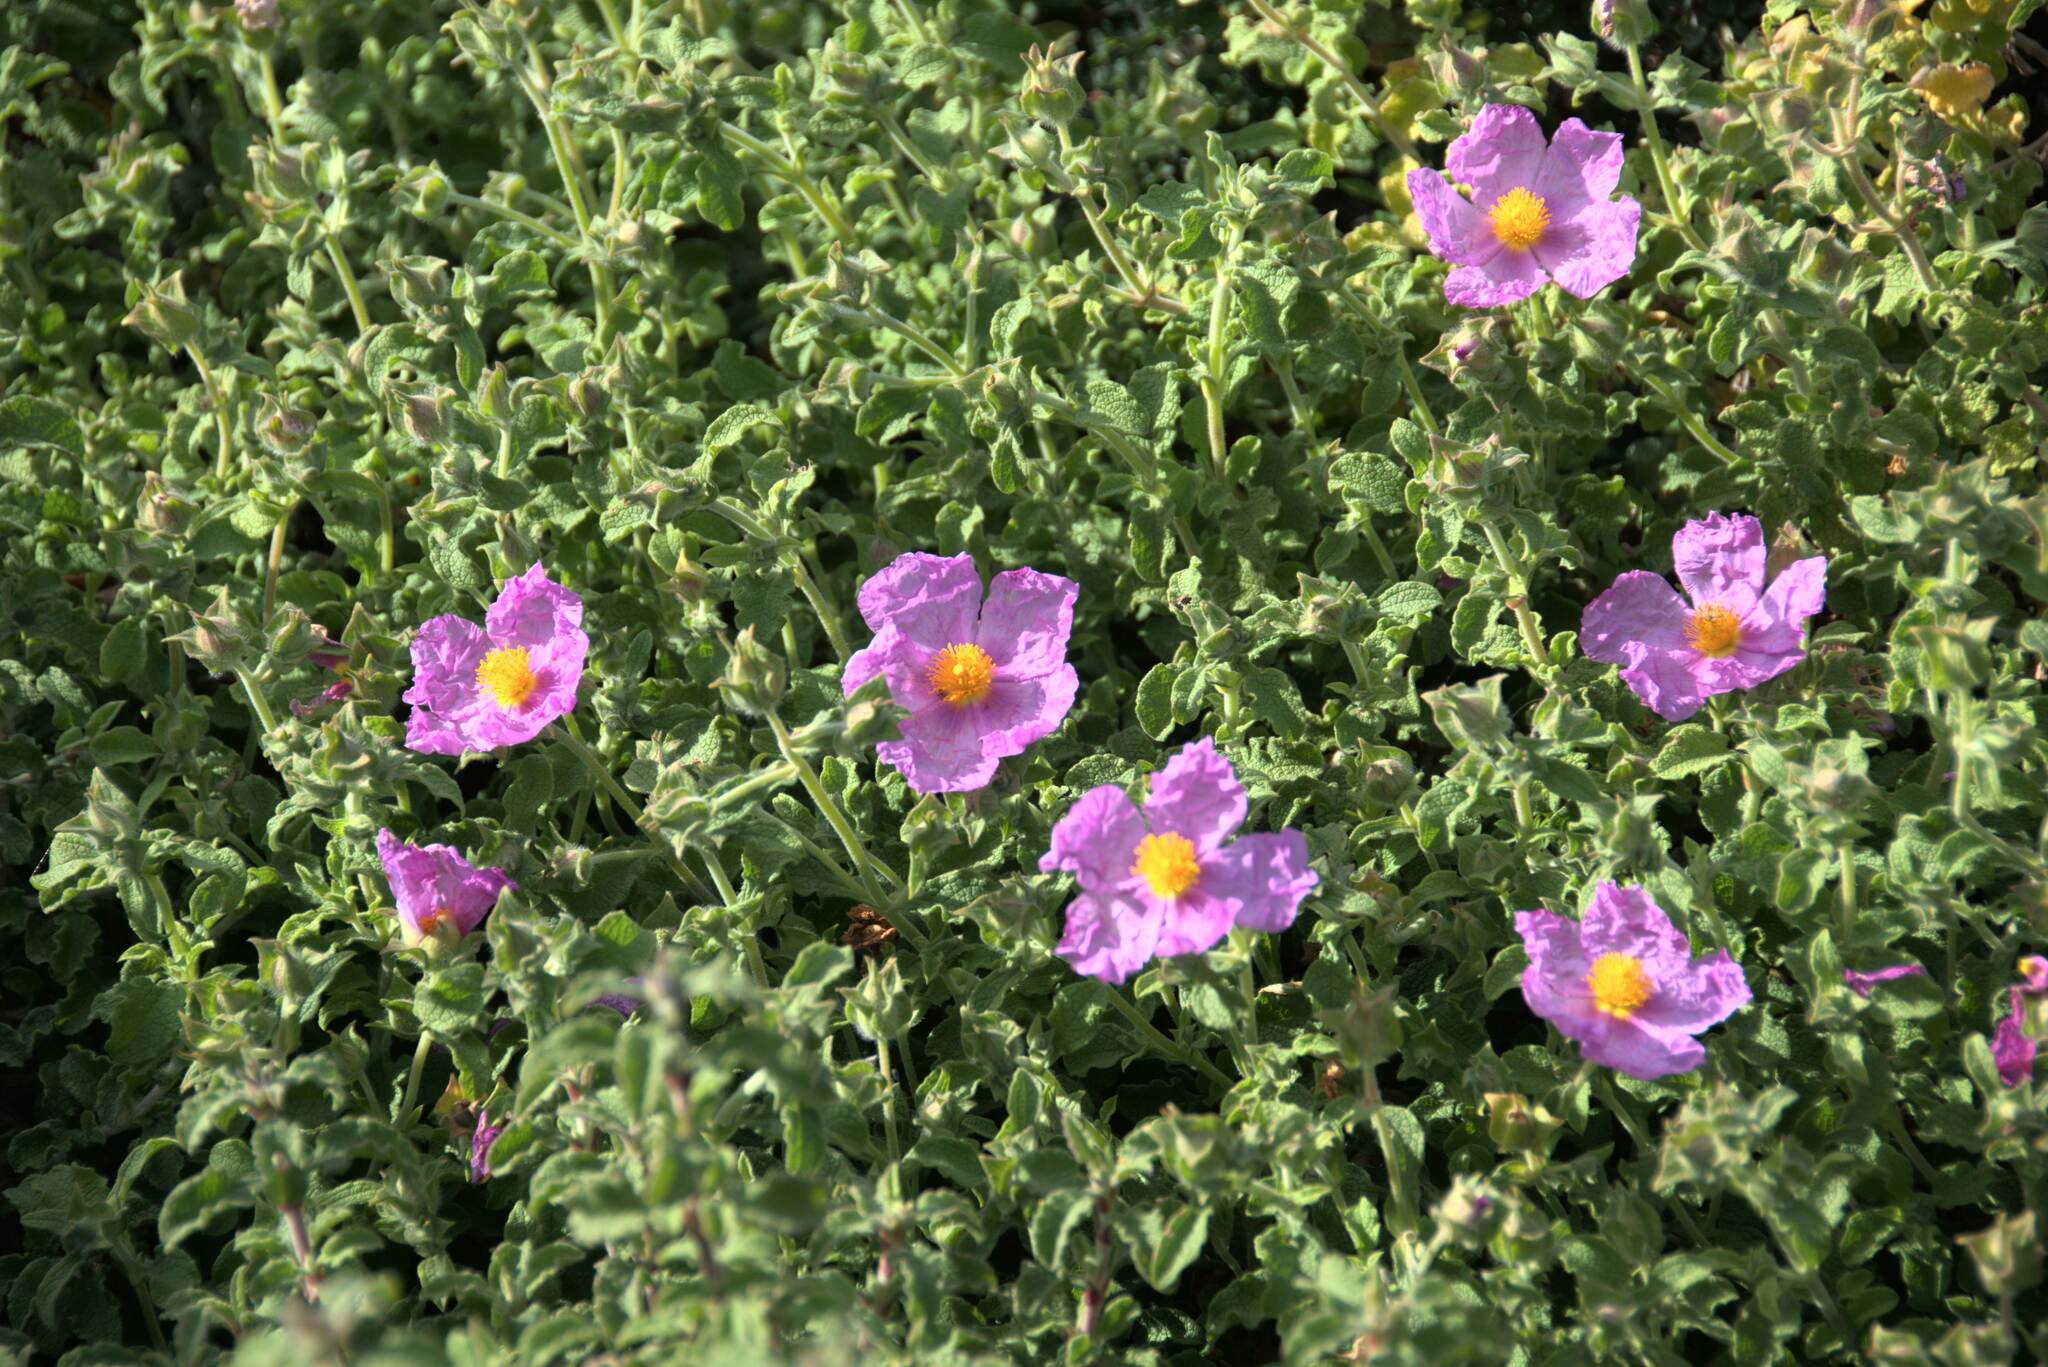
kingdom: Plantae
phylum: Tracheophyta
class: Magnoliopsida
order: Malvales
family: Cistaceae
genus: Cistus
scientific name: Cistus creticus
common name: Cretan rockrose
